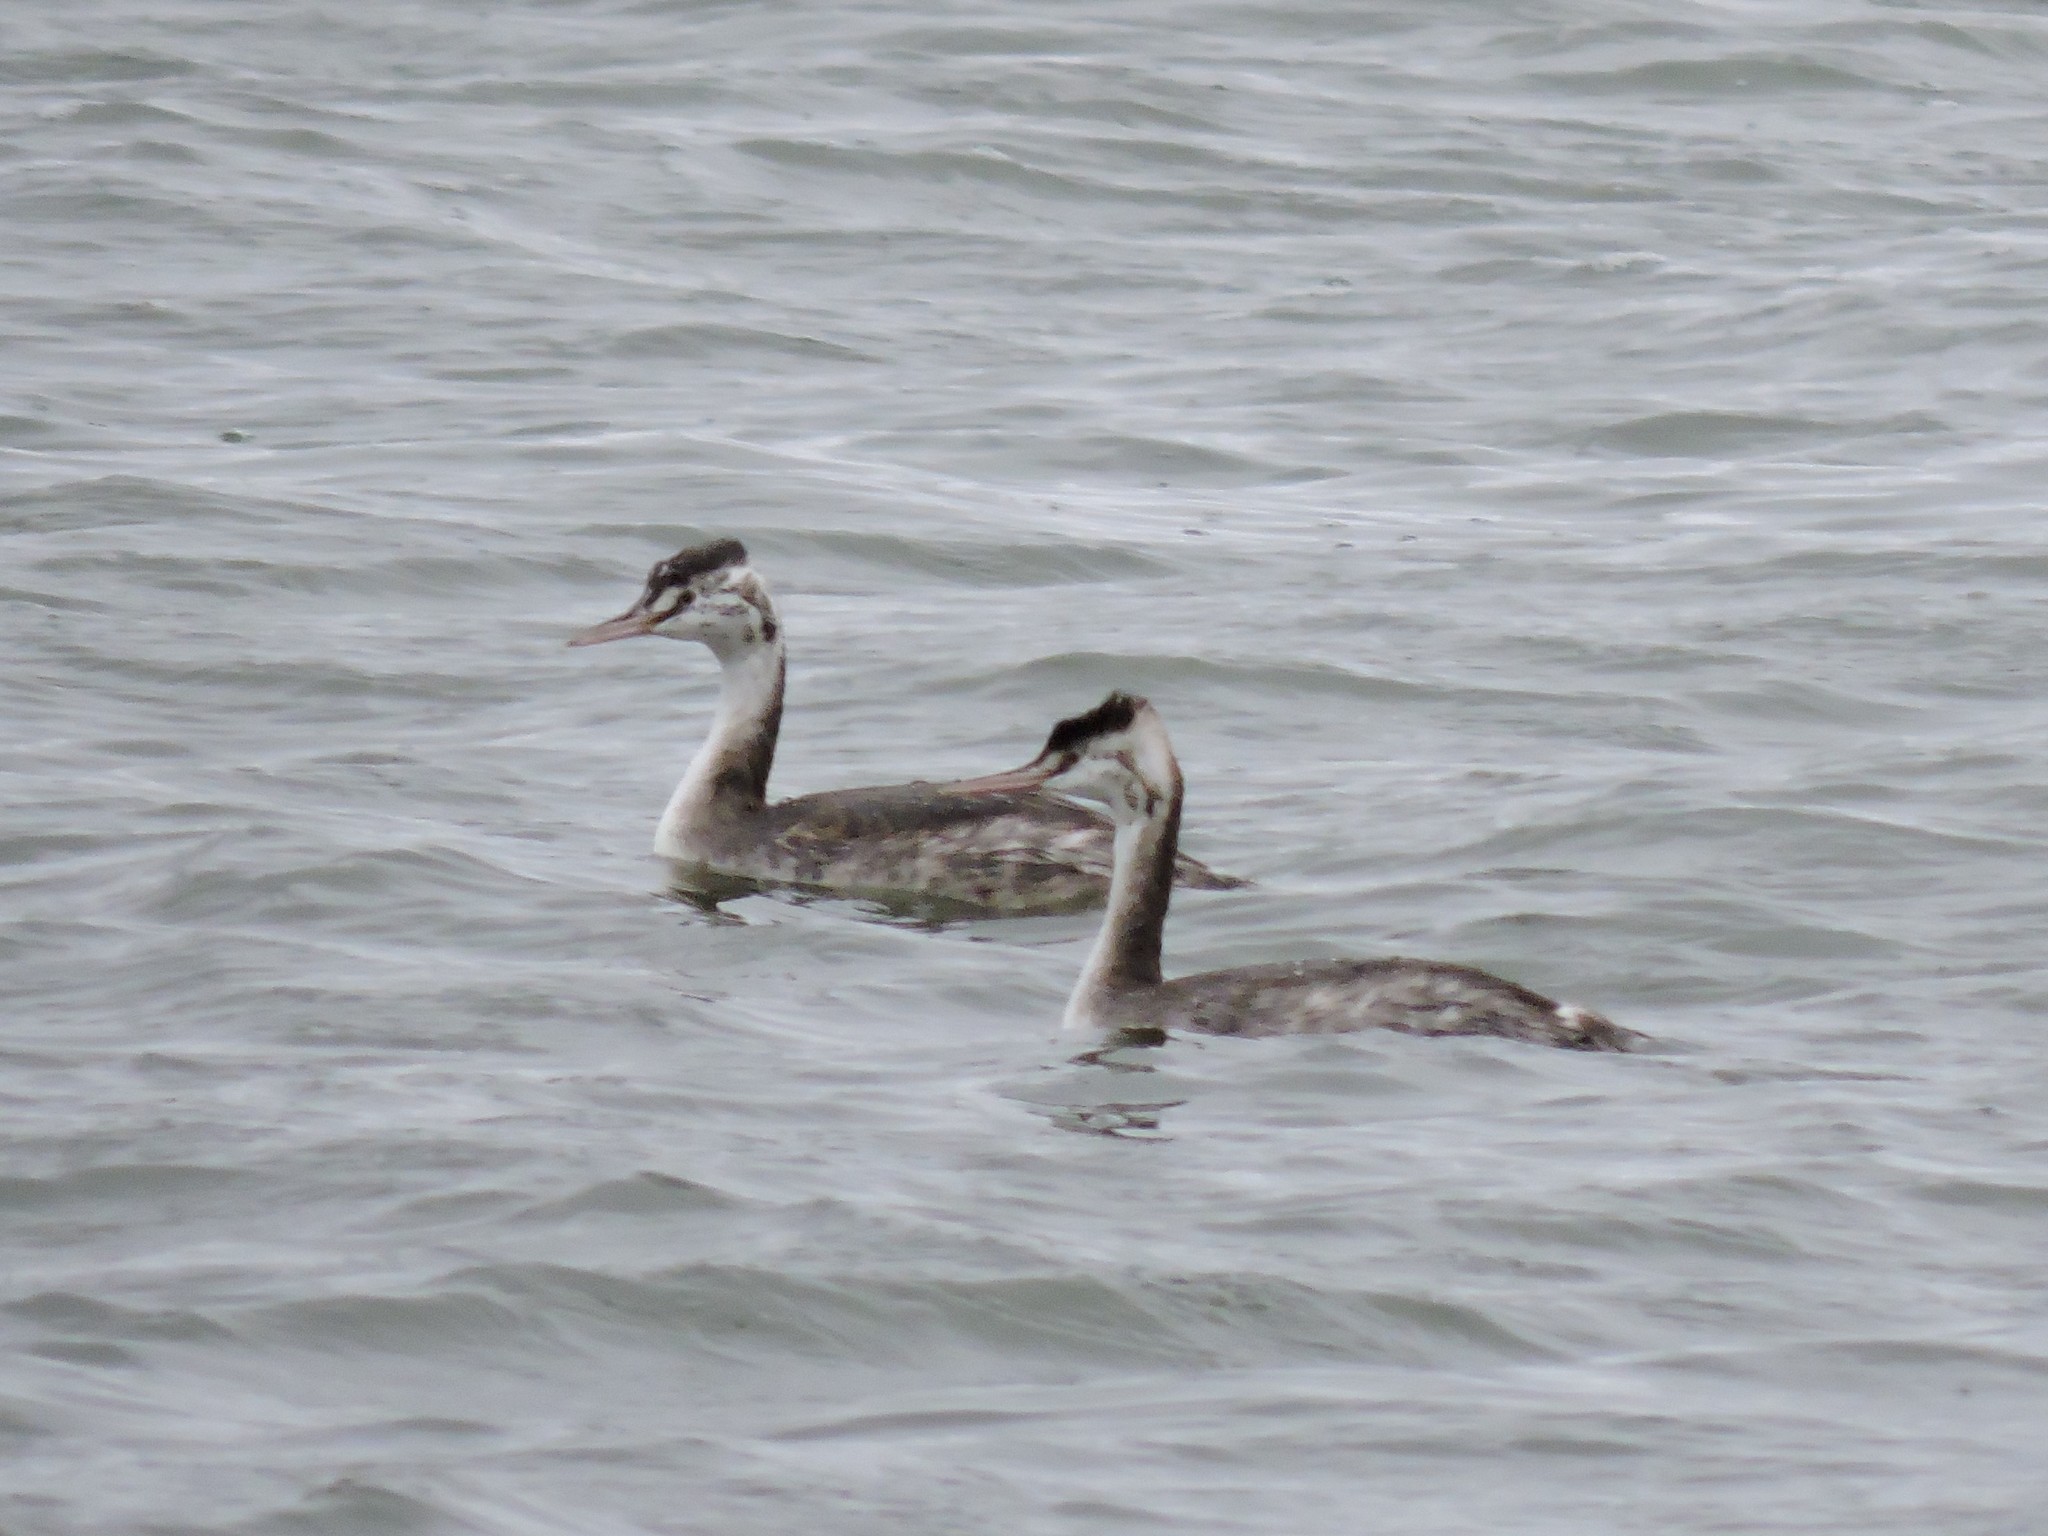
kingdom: Animalia
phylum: Chordata
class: Aves
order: Podicipediformes
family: Podicipedidae
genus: Podiceps
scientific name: Podiceps cristatus
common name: Great crested grebe
